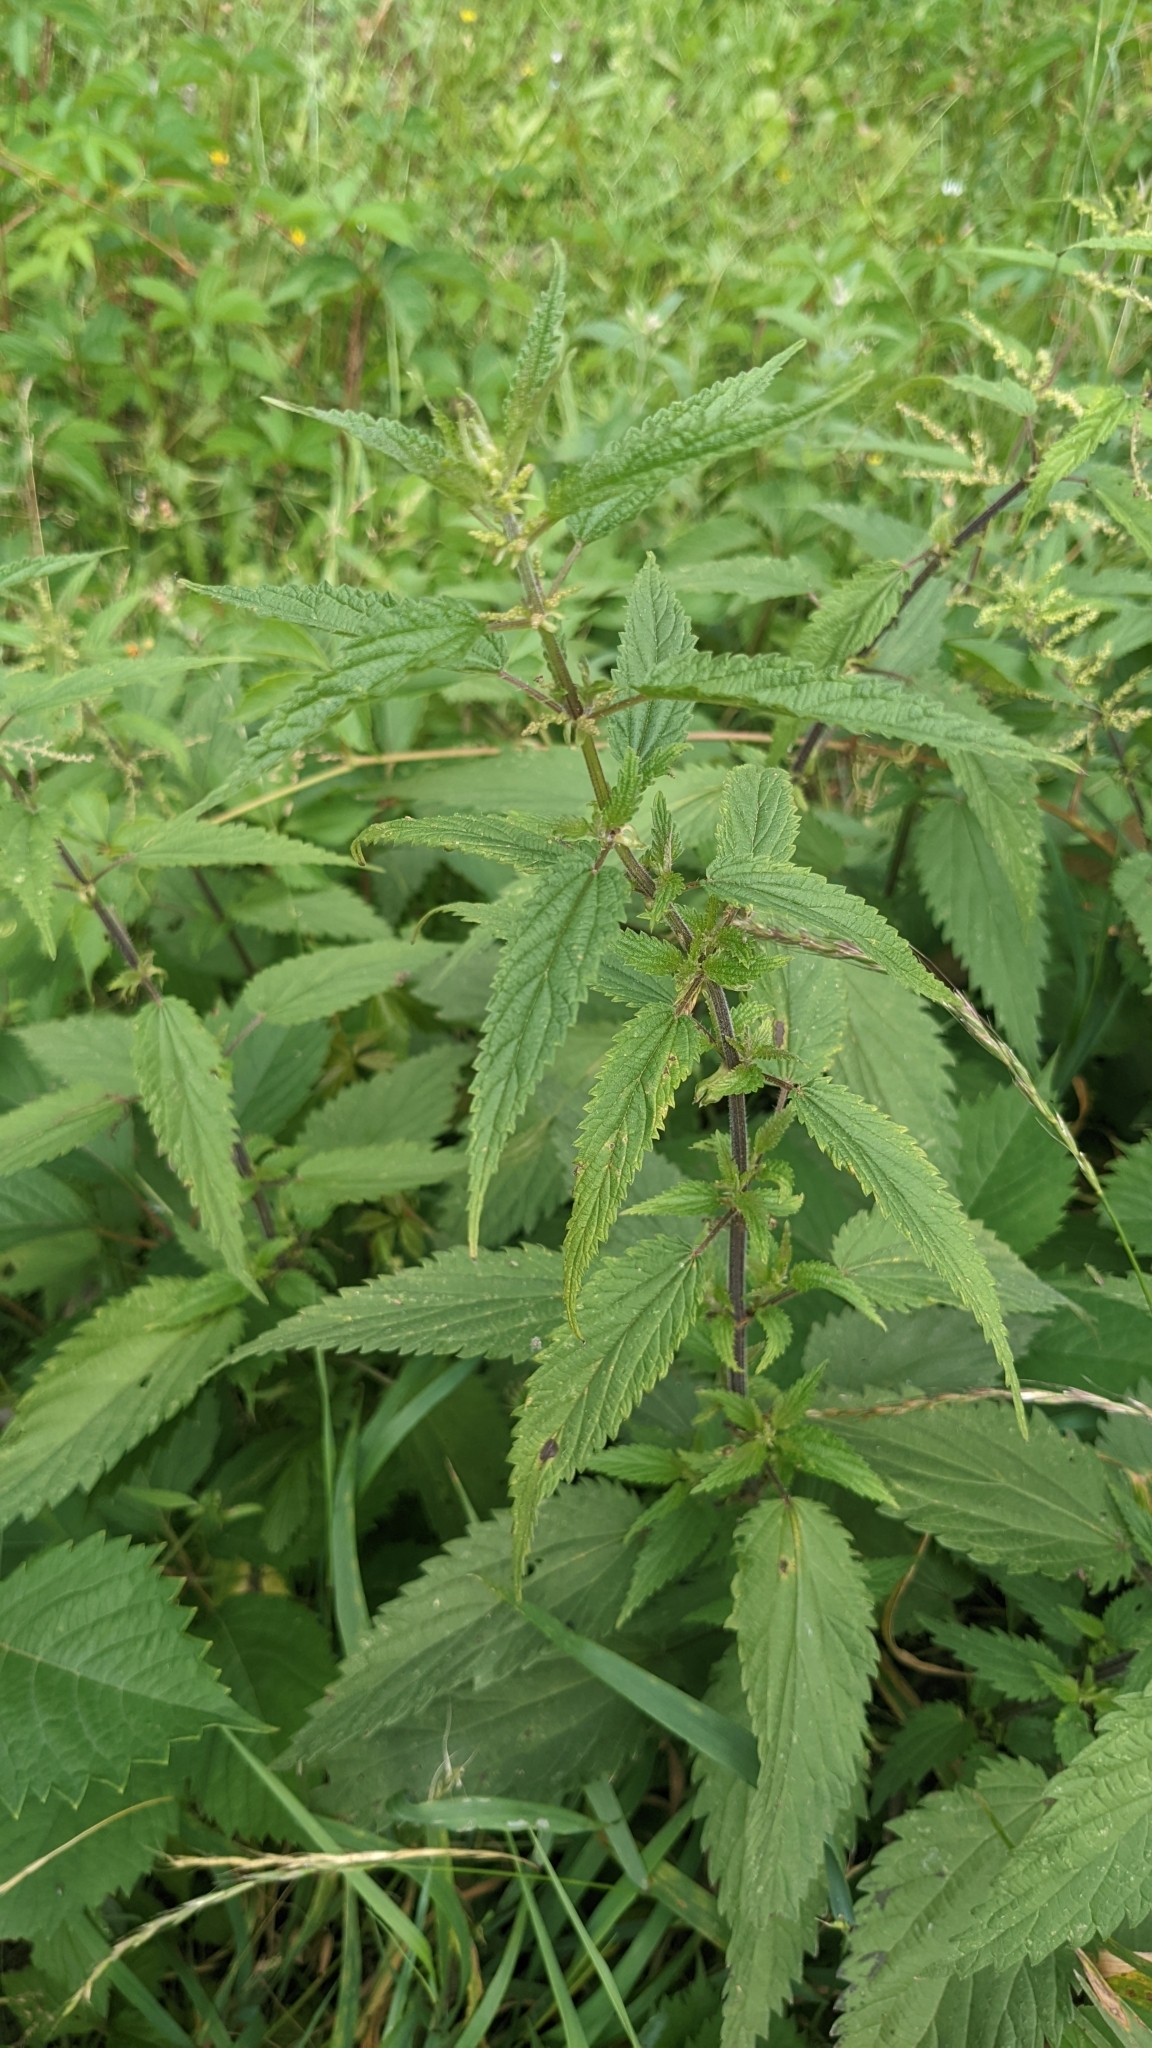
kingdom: Plantae
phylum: Tracheophyta
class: Magnoliopsida
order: Rosales
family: Urticaceae
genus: Urtica
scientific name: Urtica dioica
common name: Common nettle
